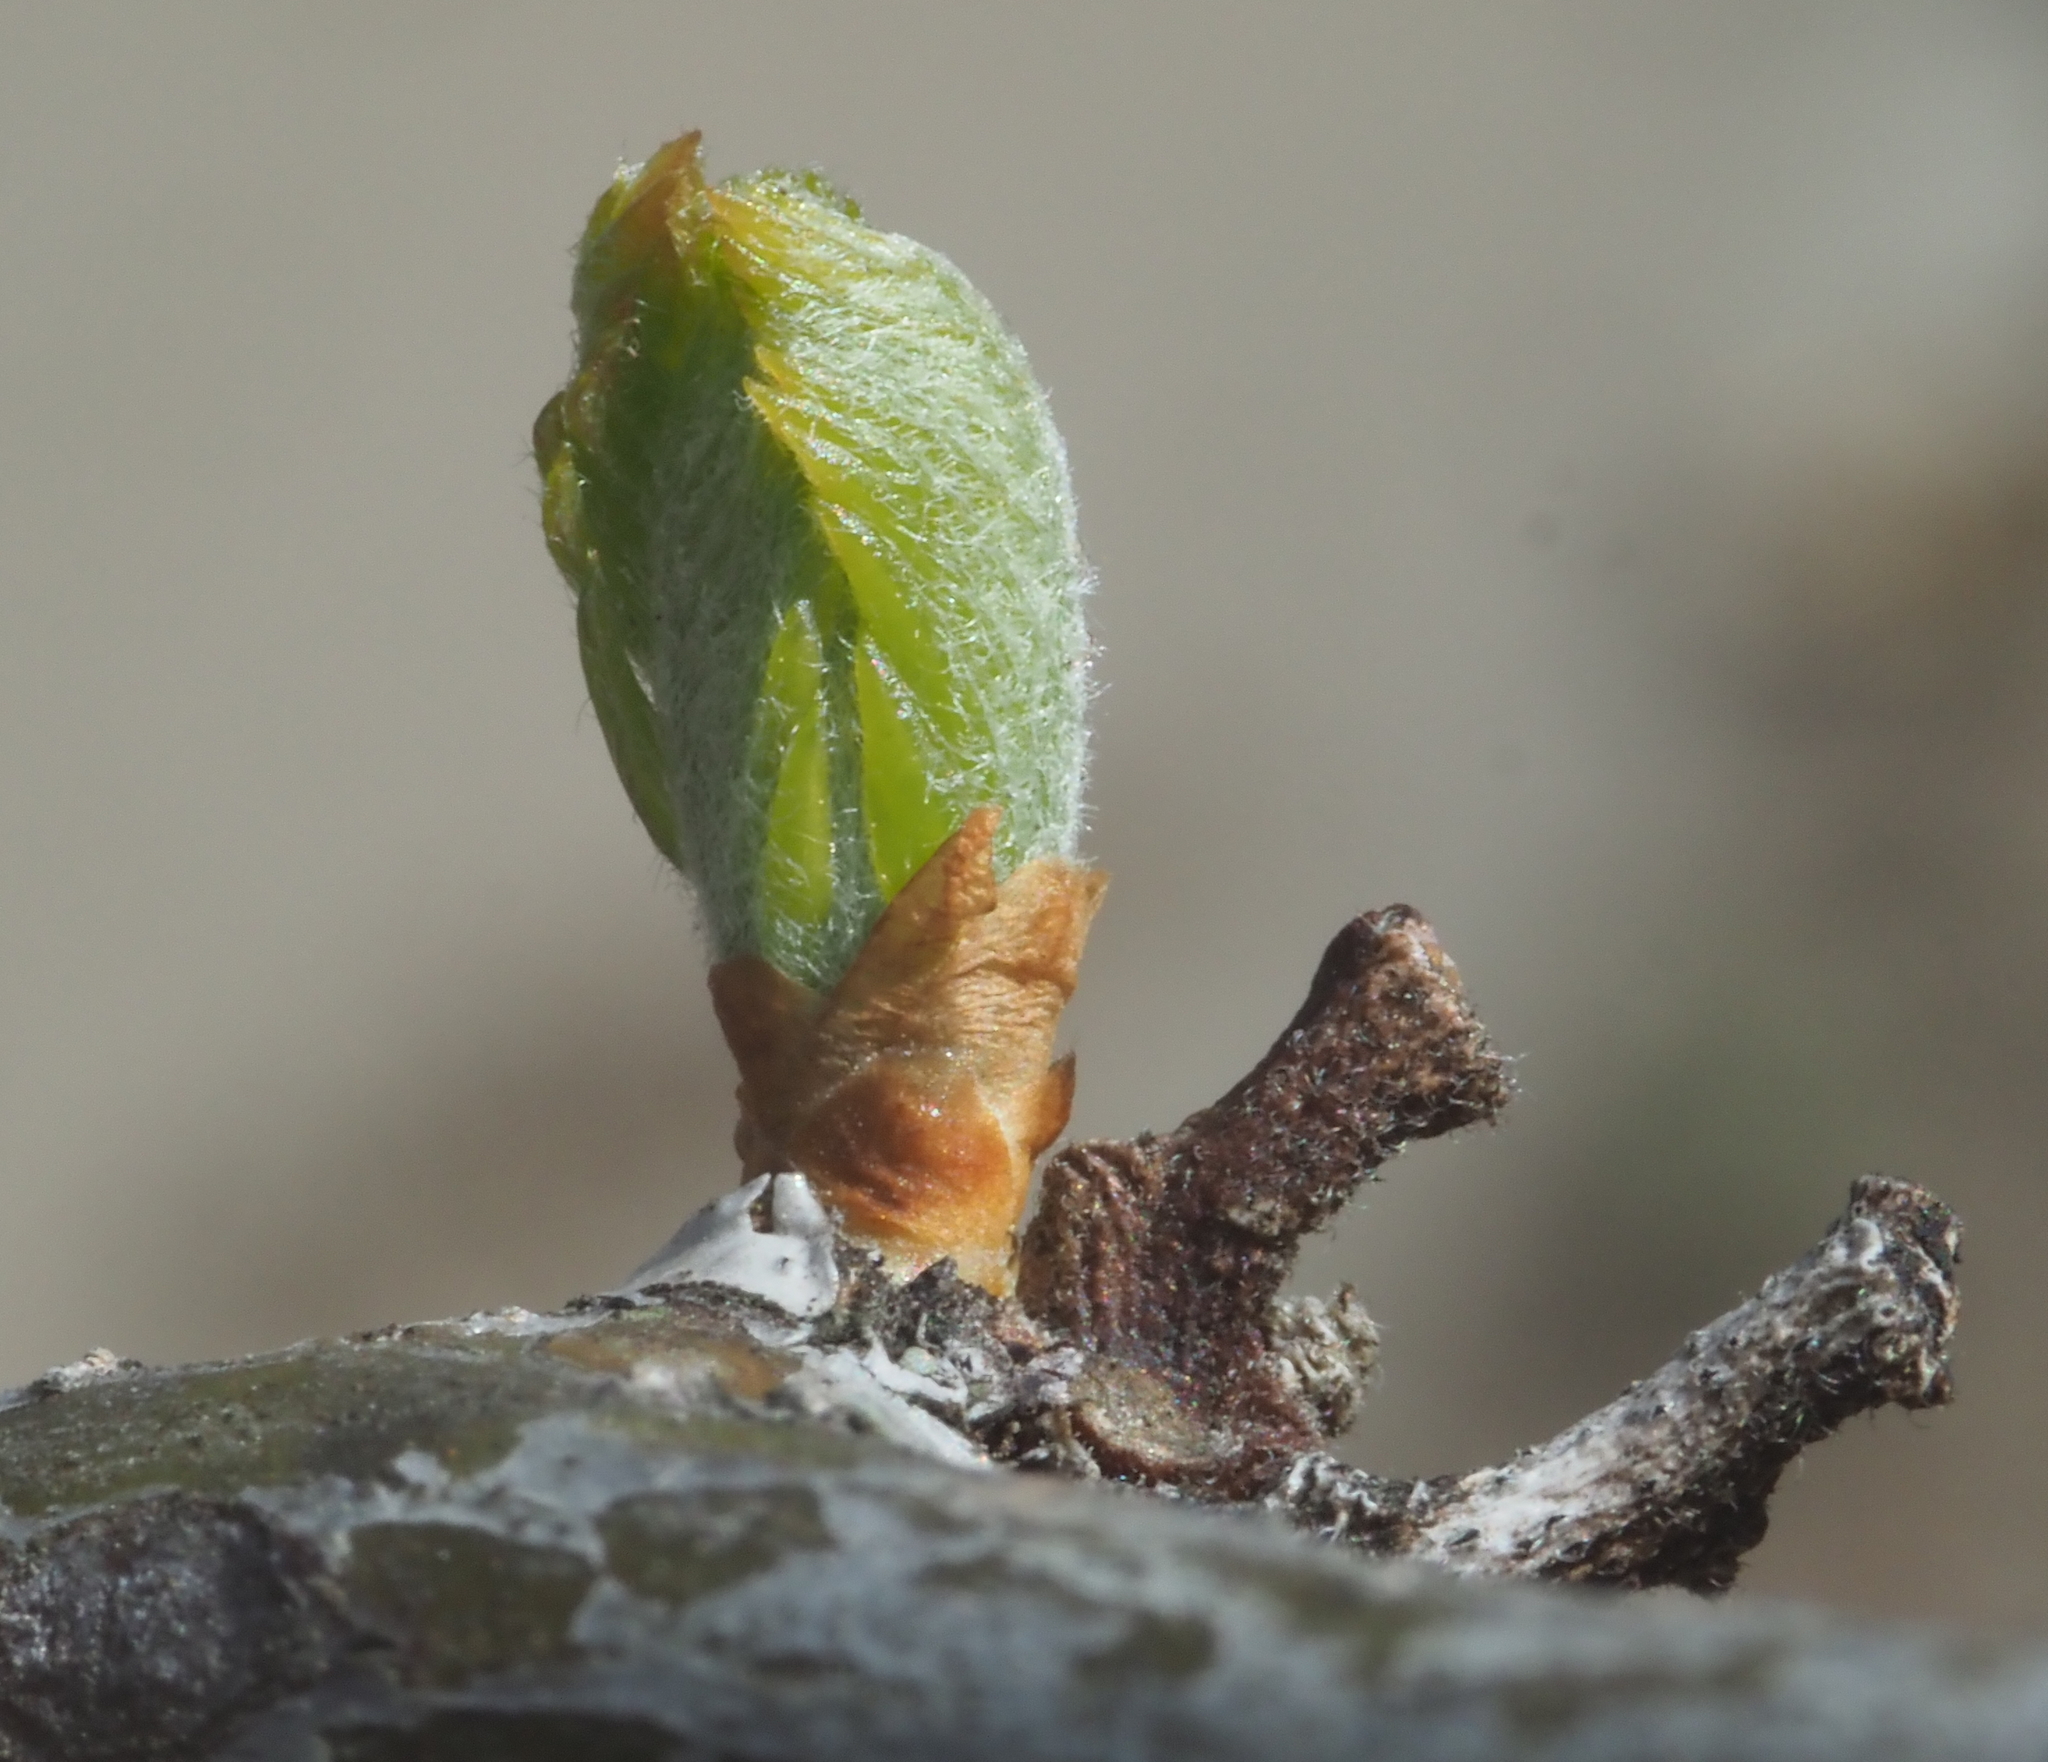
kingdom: Plantae
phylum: Tracheophyta
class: Magnoliopsida
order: Fabales
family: Fabaceae
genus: Gleditsia
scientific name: Gleditsia triacanthos
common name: Common honeylocust
